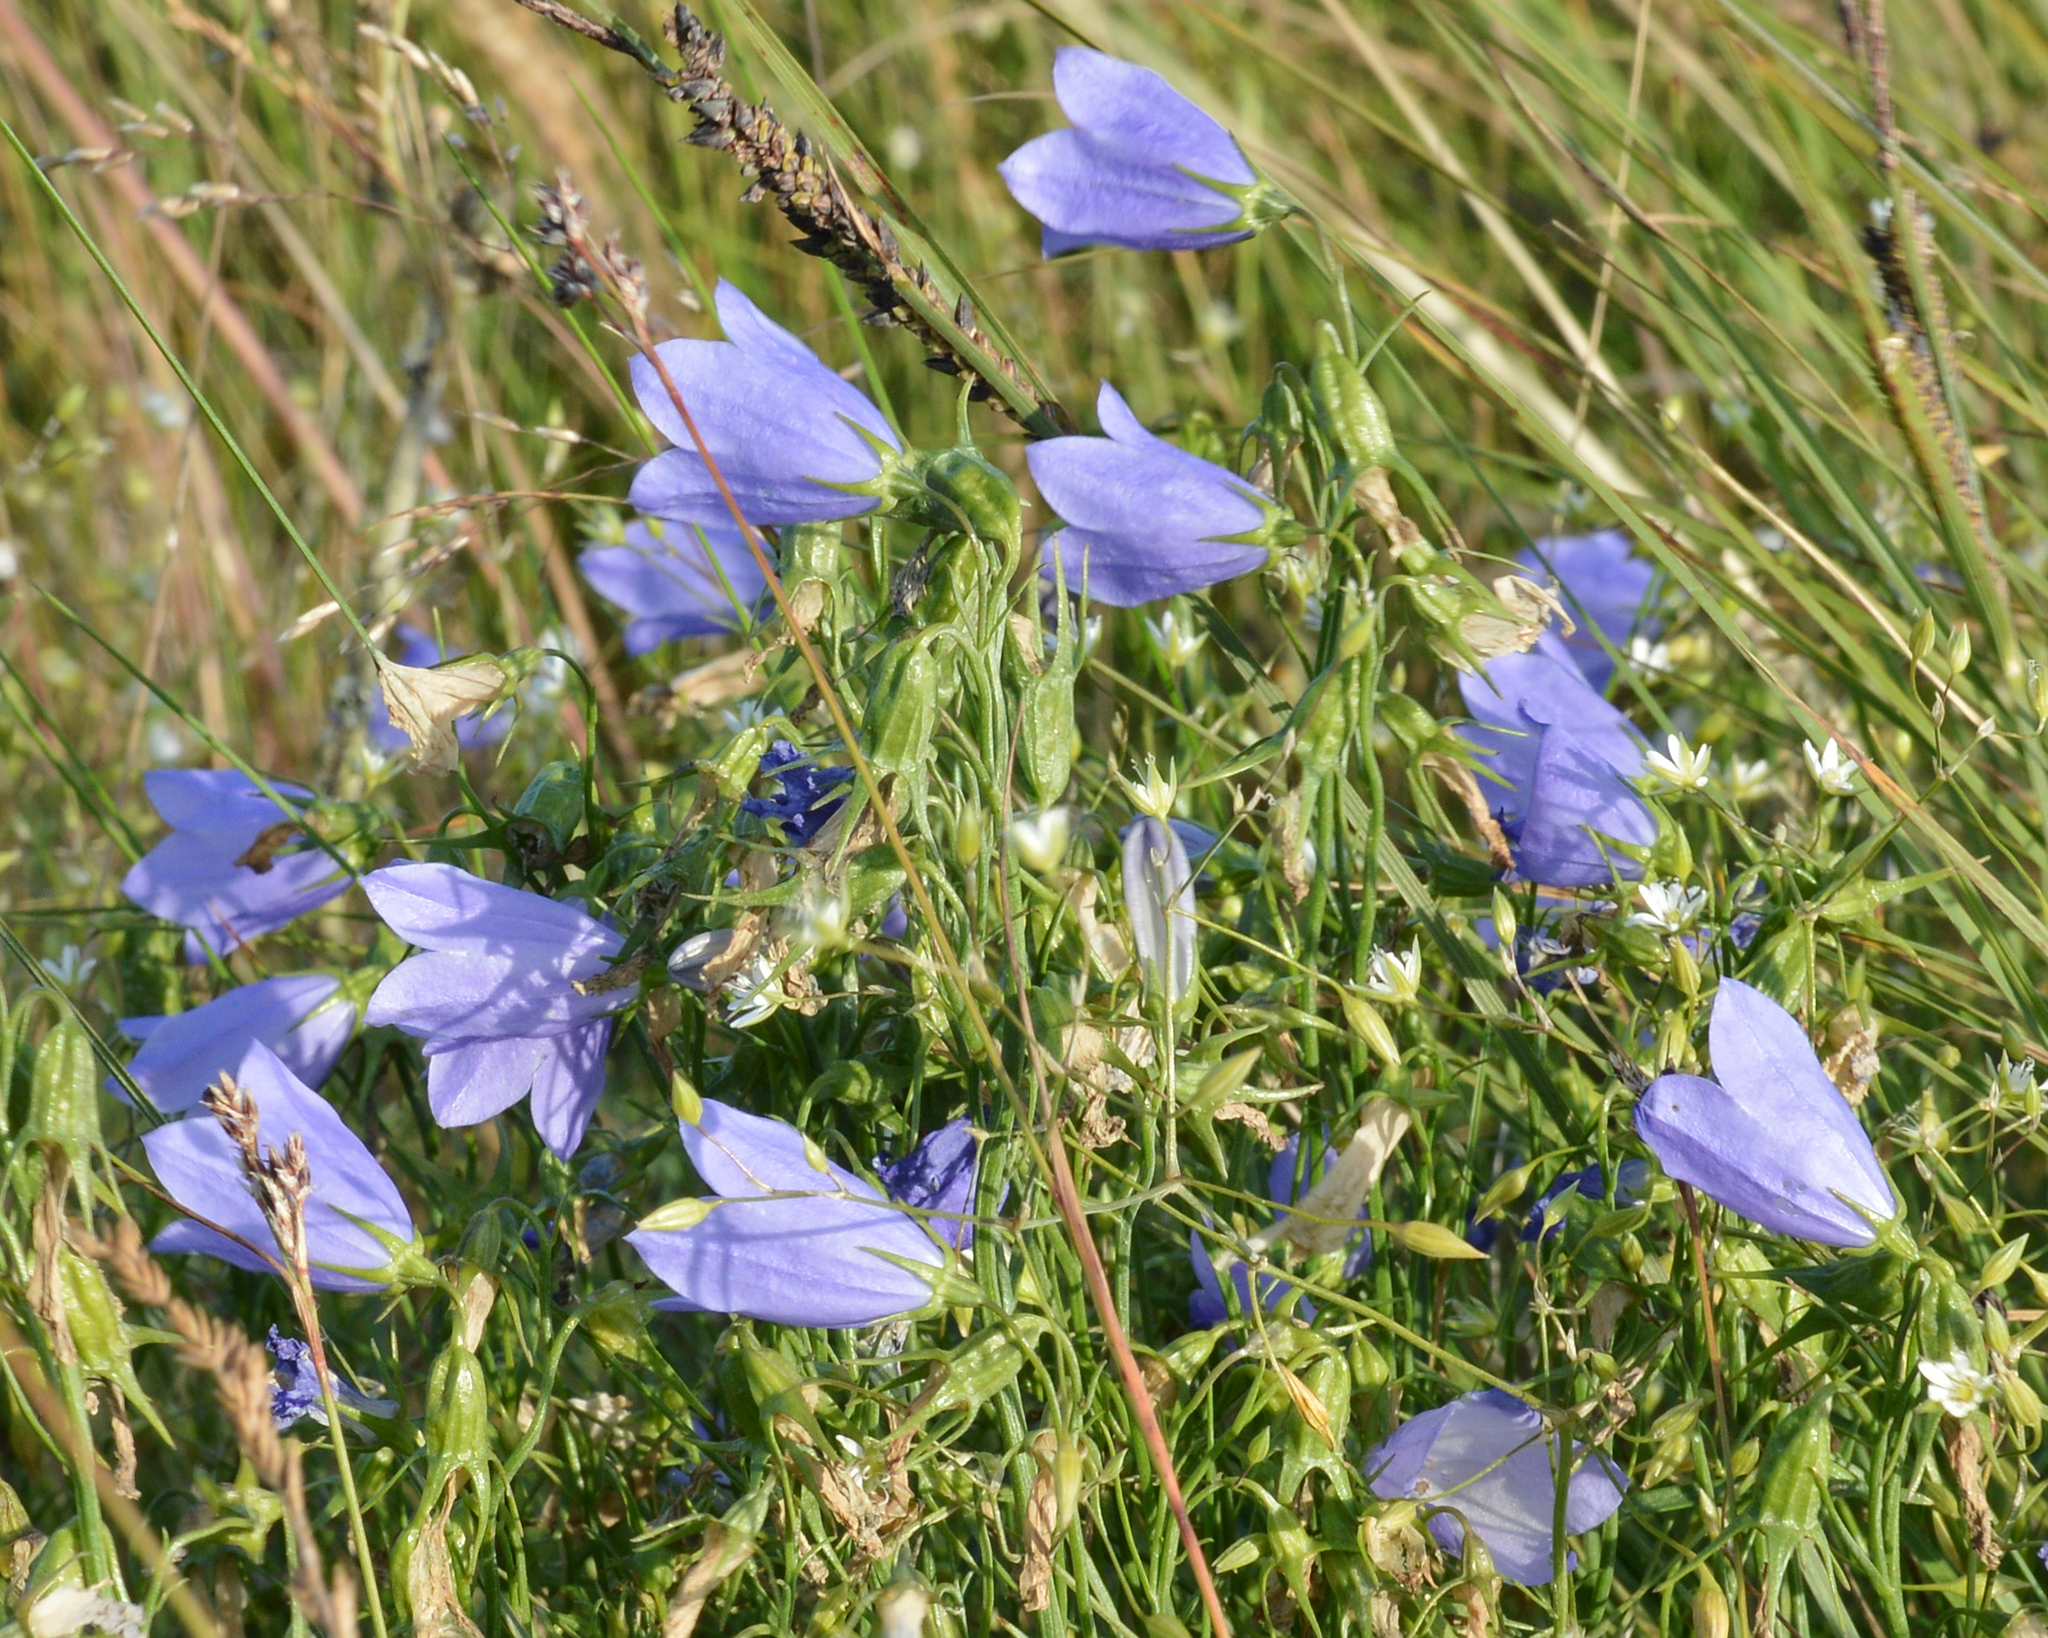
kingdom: Plantae
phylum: Tracheophyta
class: Magnoliopsida
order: Asterales
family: Campanulaceae
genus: Campanula
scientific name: Campanula giesekiana
